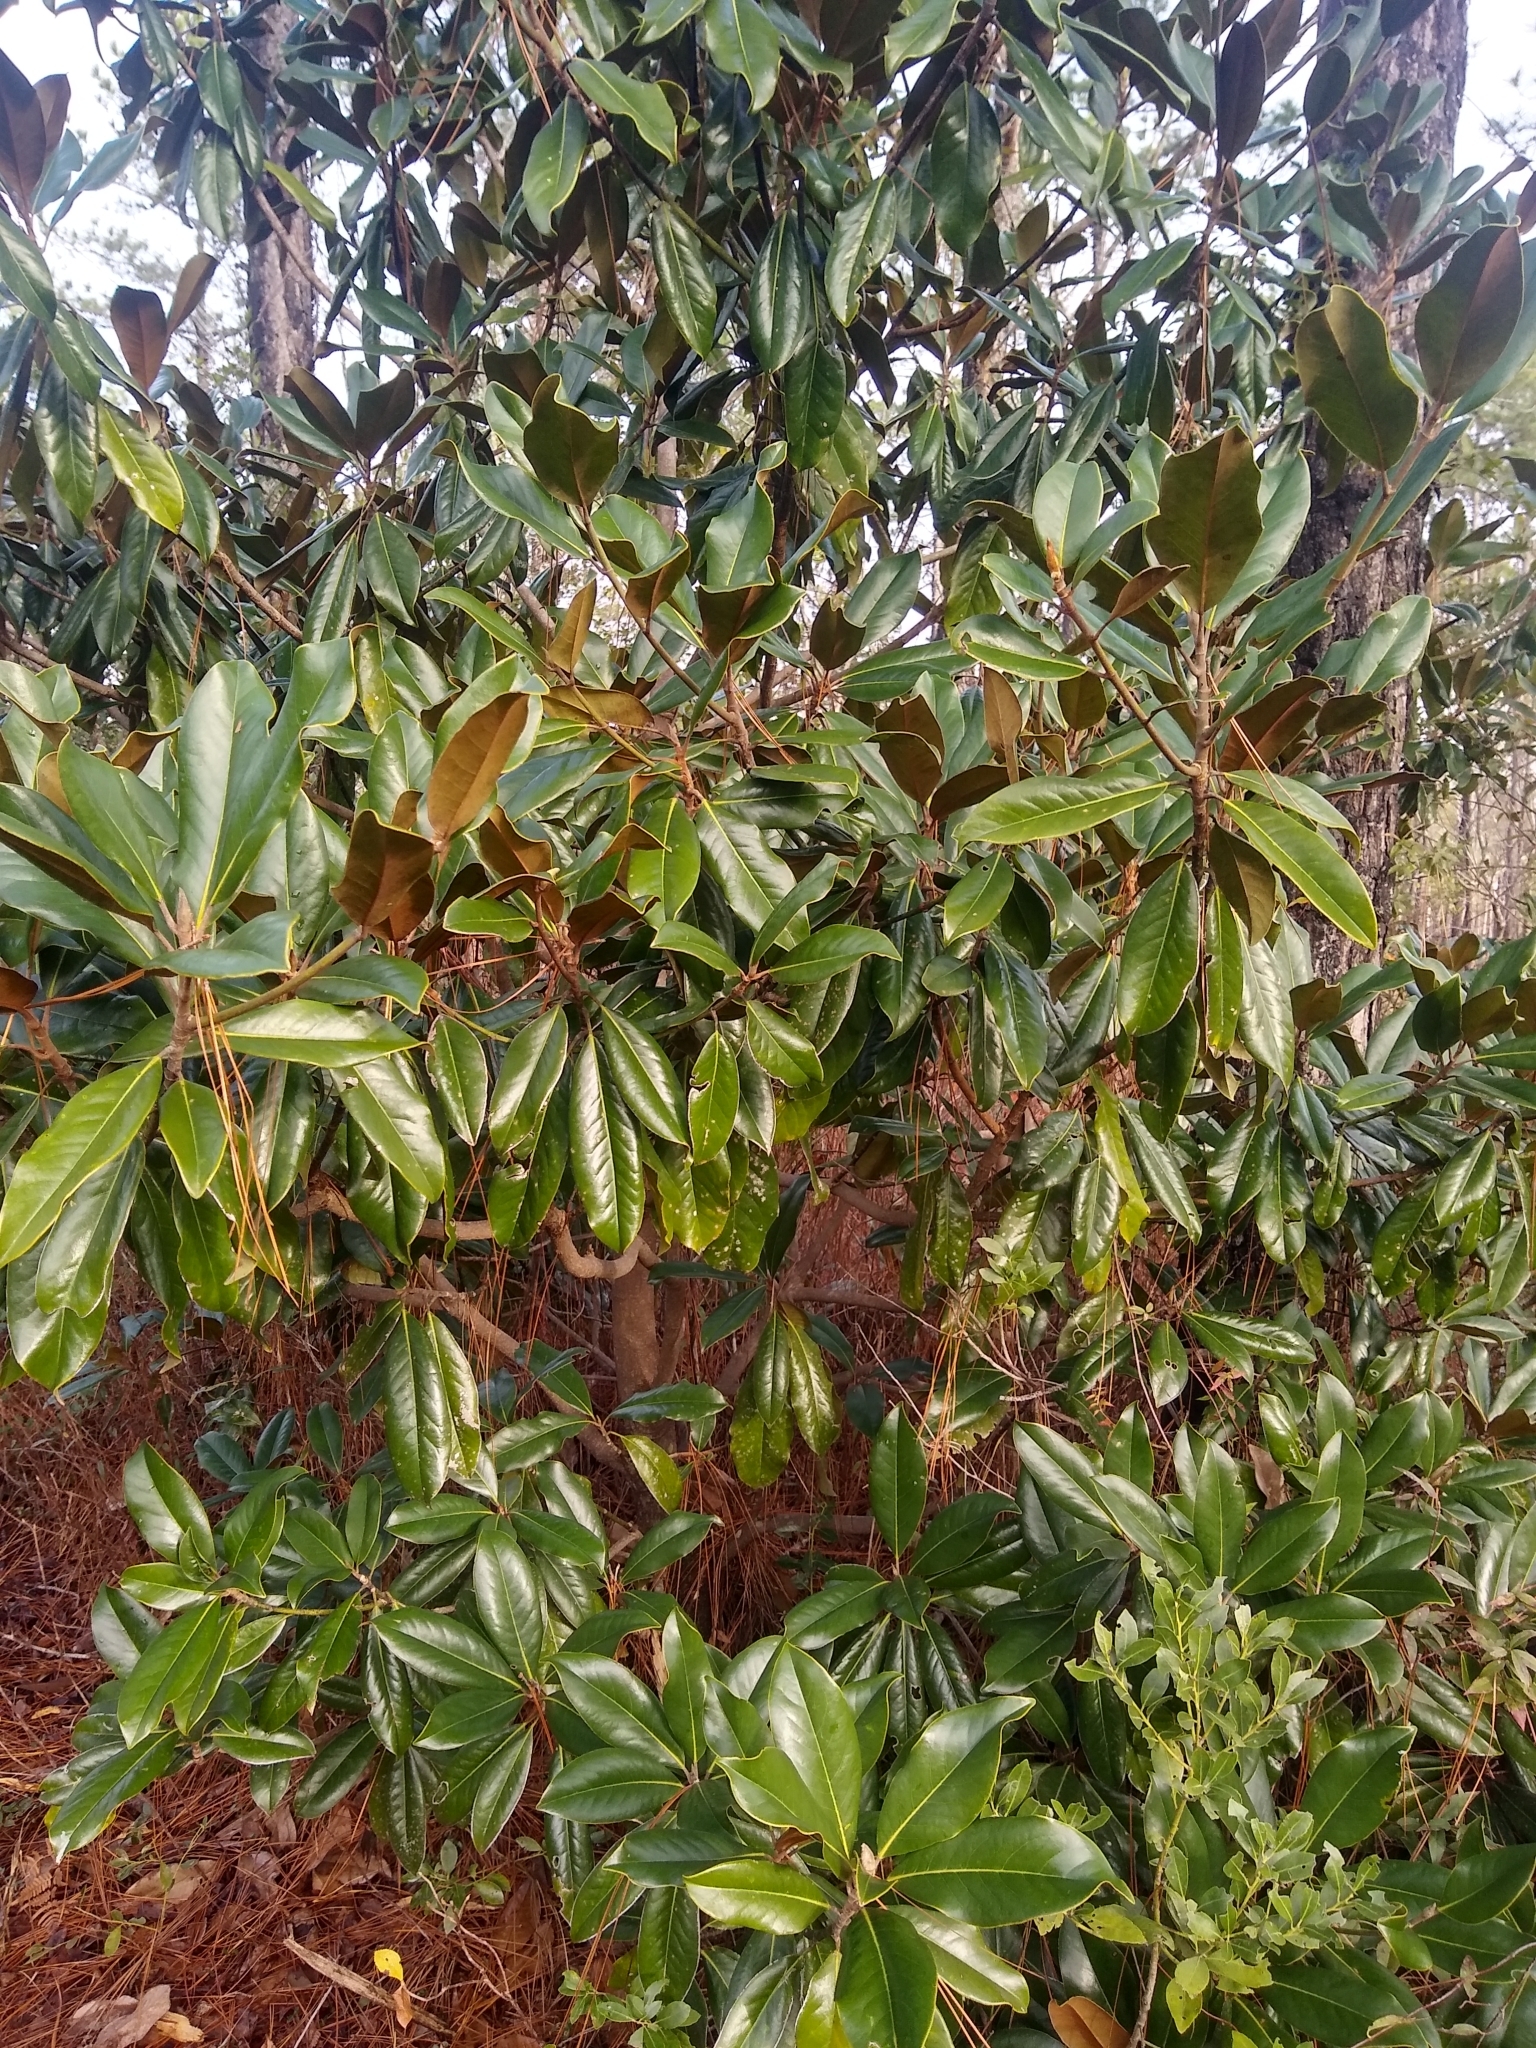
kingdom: Plantae
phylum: Tracheophyta
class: Magnoliopsida
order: Magnoliales
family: Magnoliaceae
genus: Magnolia
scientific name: Magnolia grandiflora
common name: Southern magnolia
